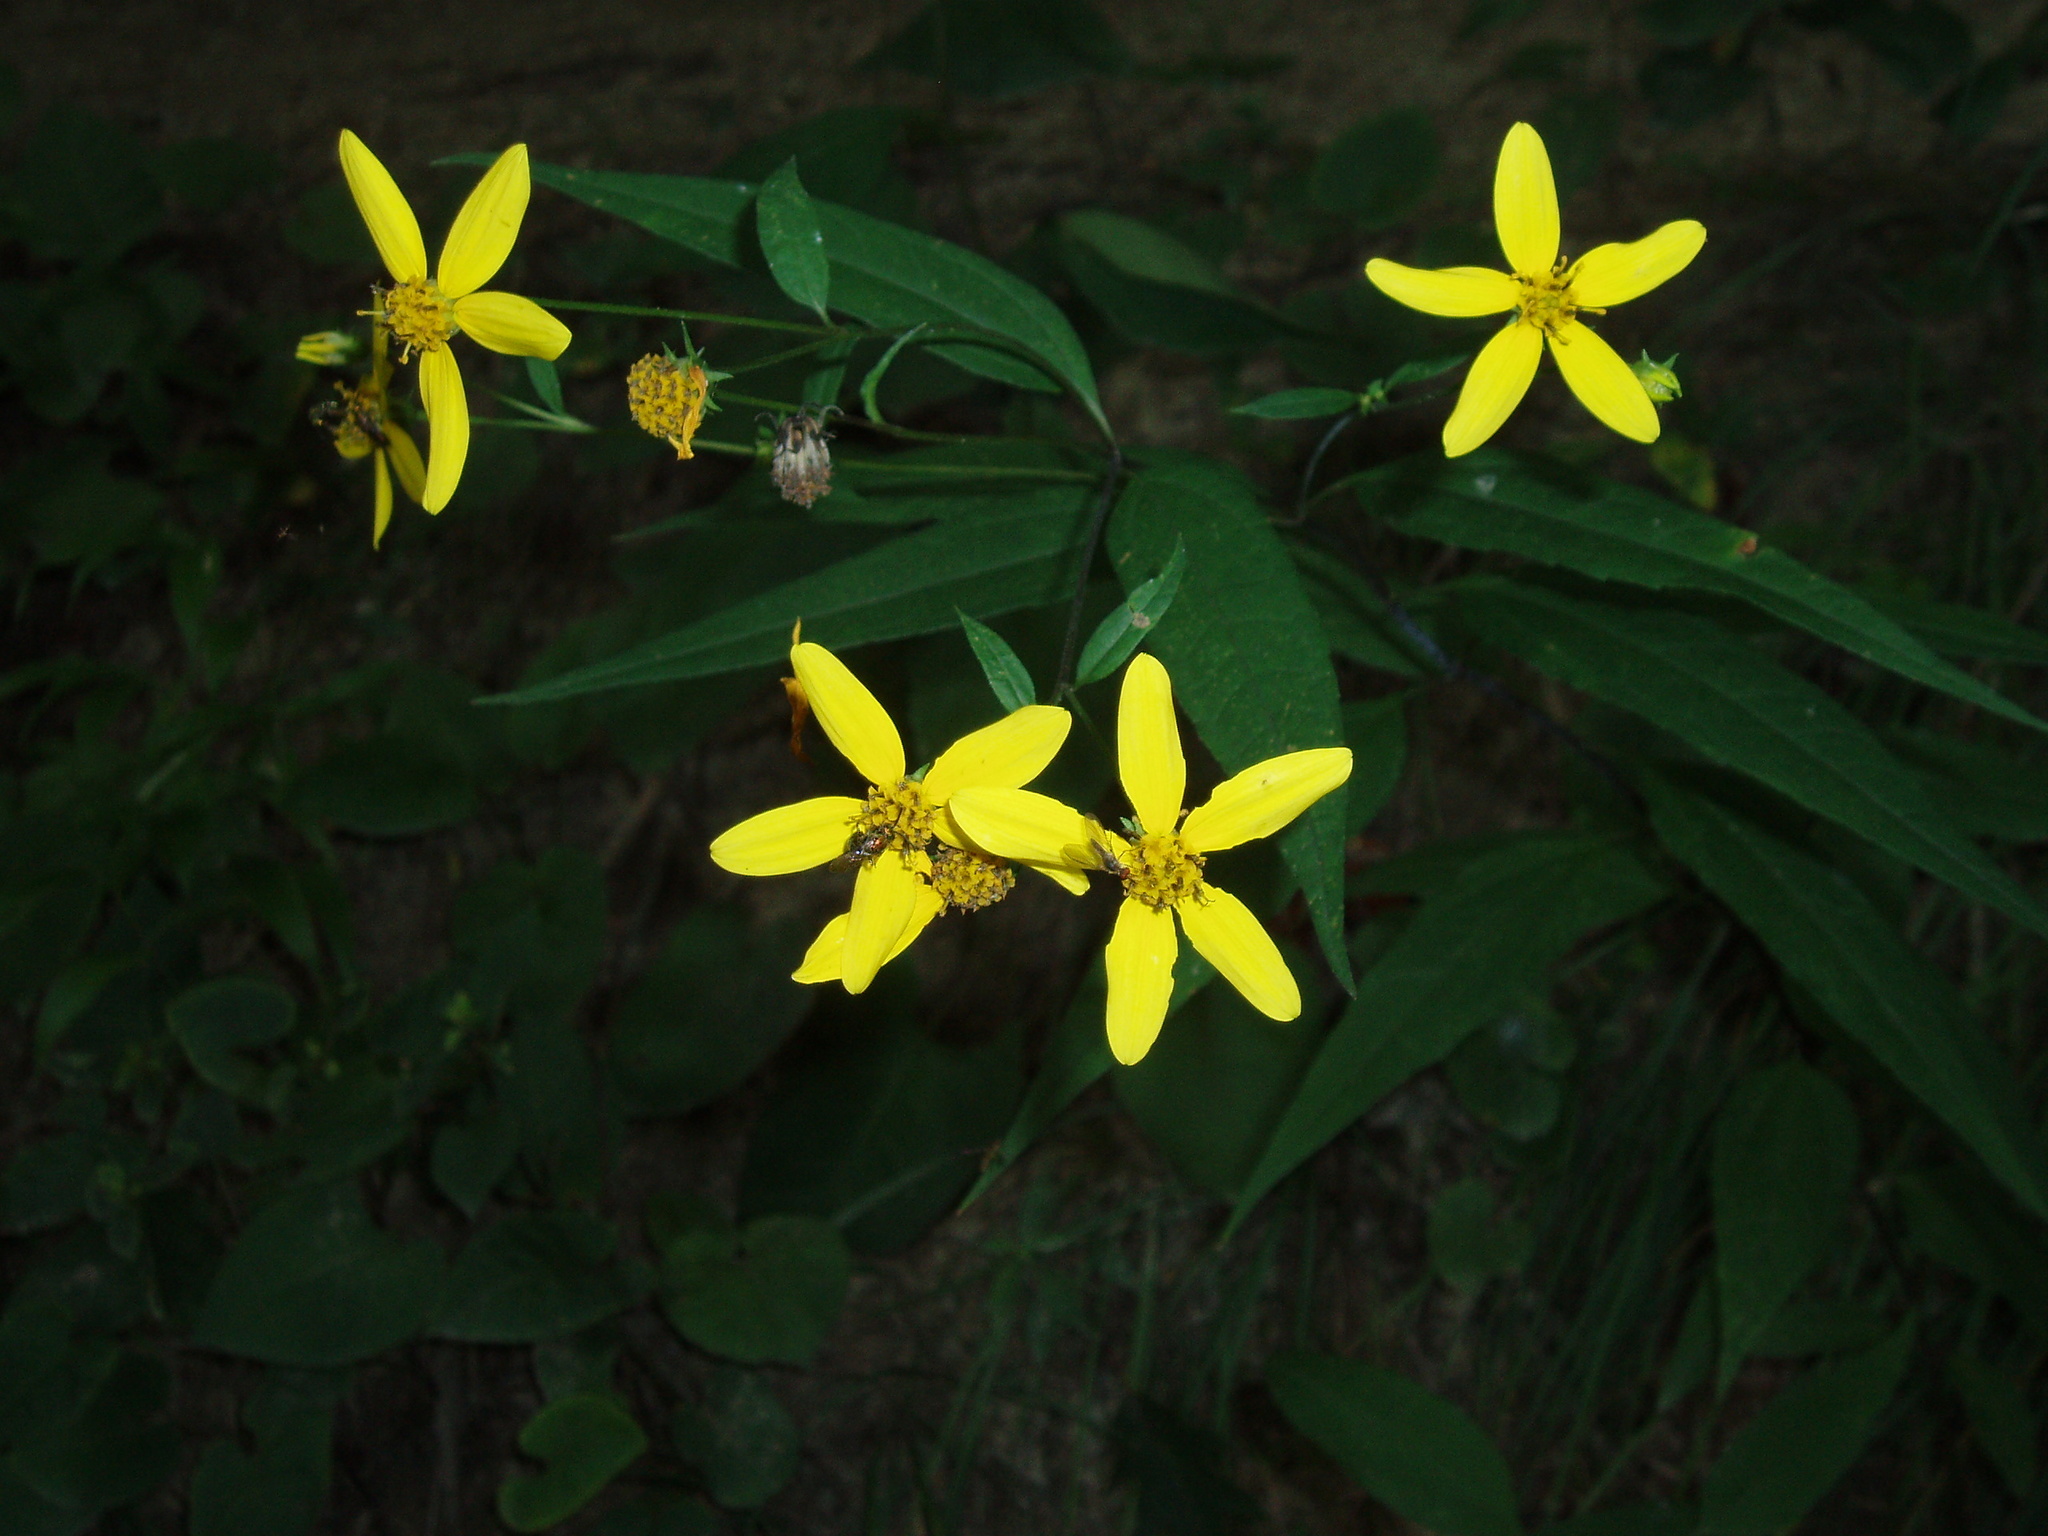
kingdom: Plantae
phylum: Tracheophyta
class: Magnoliopsida
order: Asterales
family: Asteraceae
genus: Helianthus
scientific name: Helianthus microcephalus
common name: Woodland sunflower
